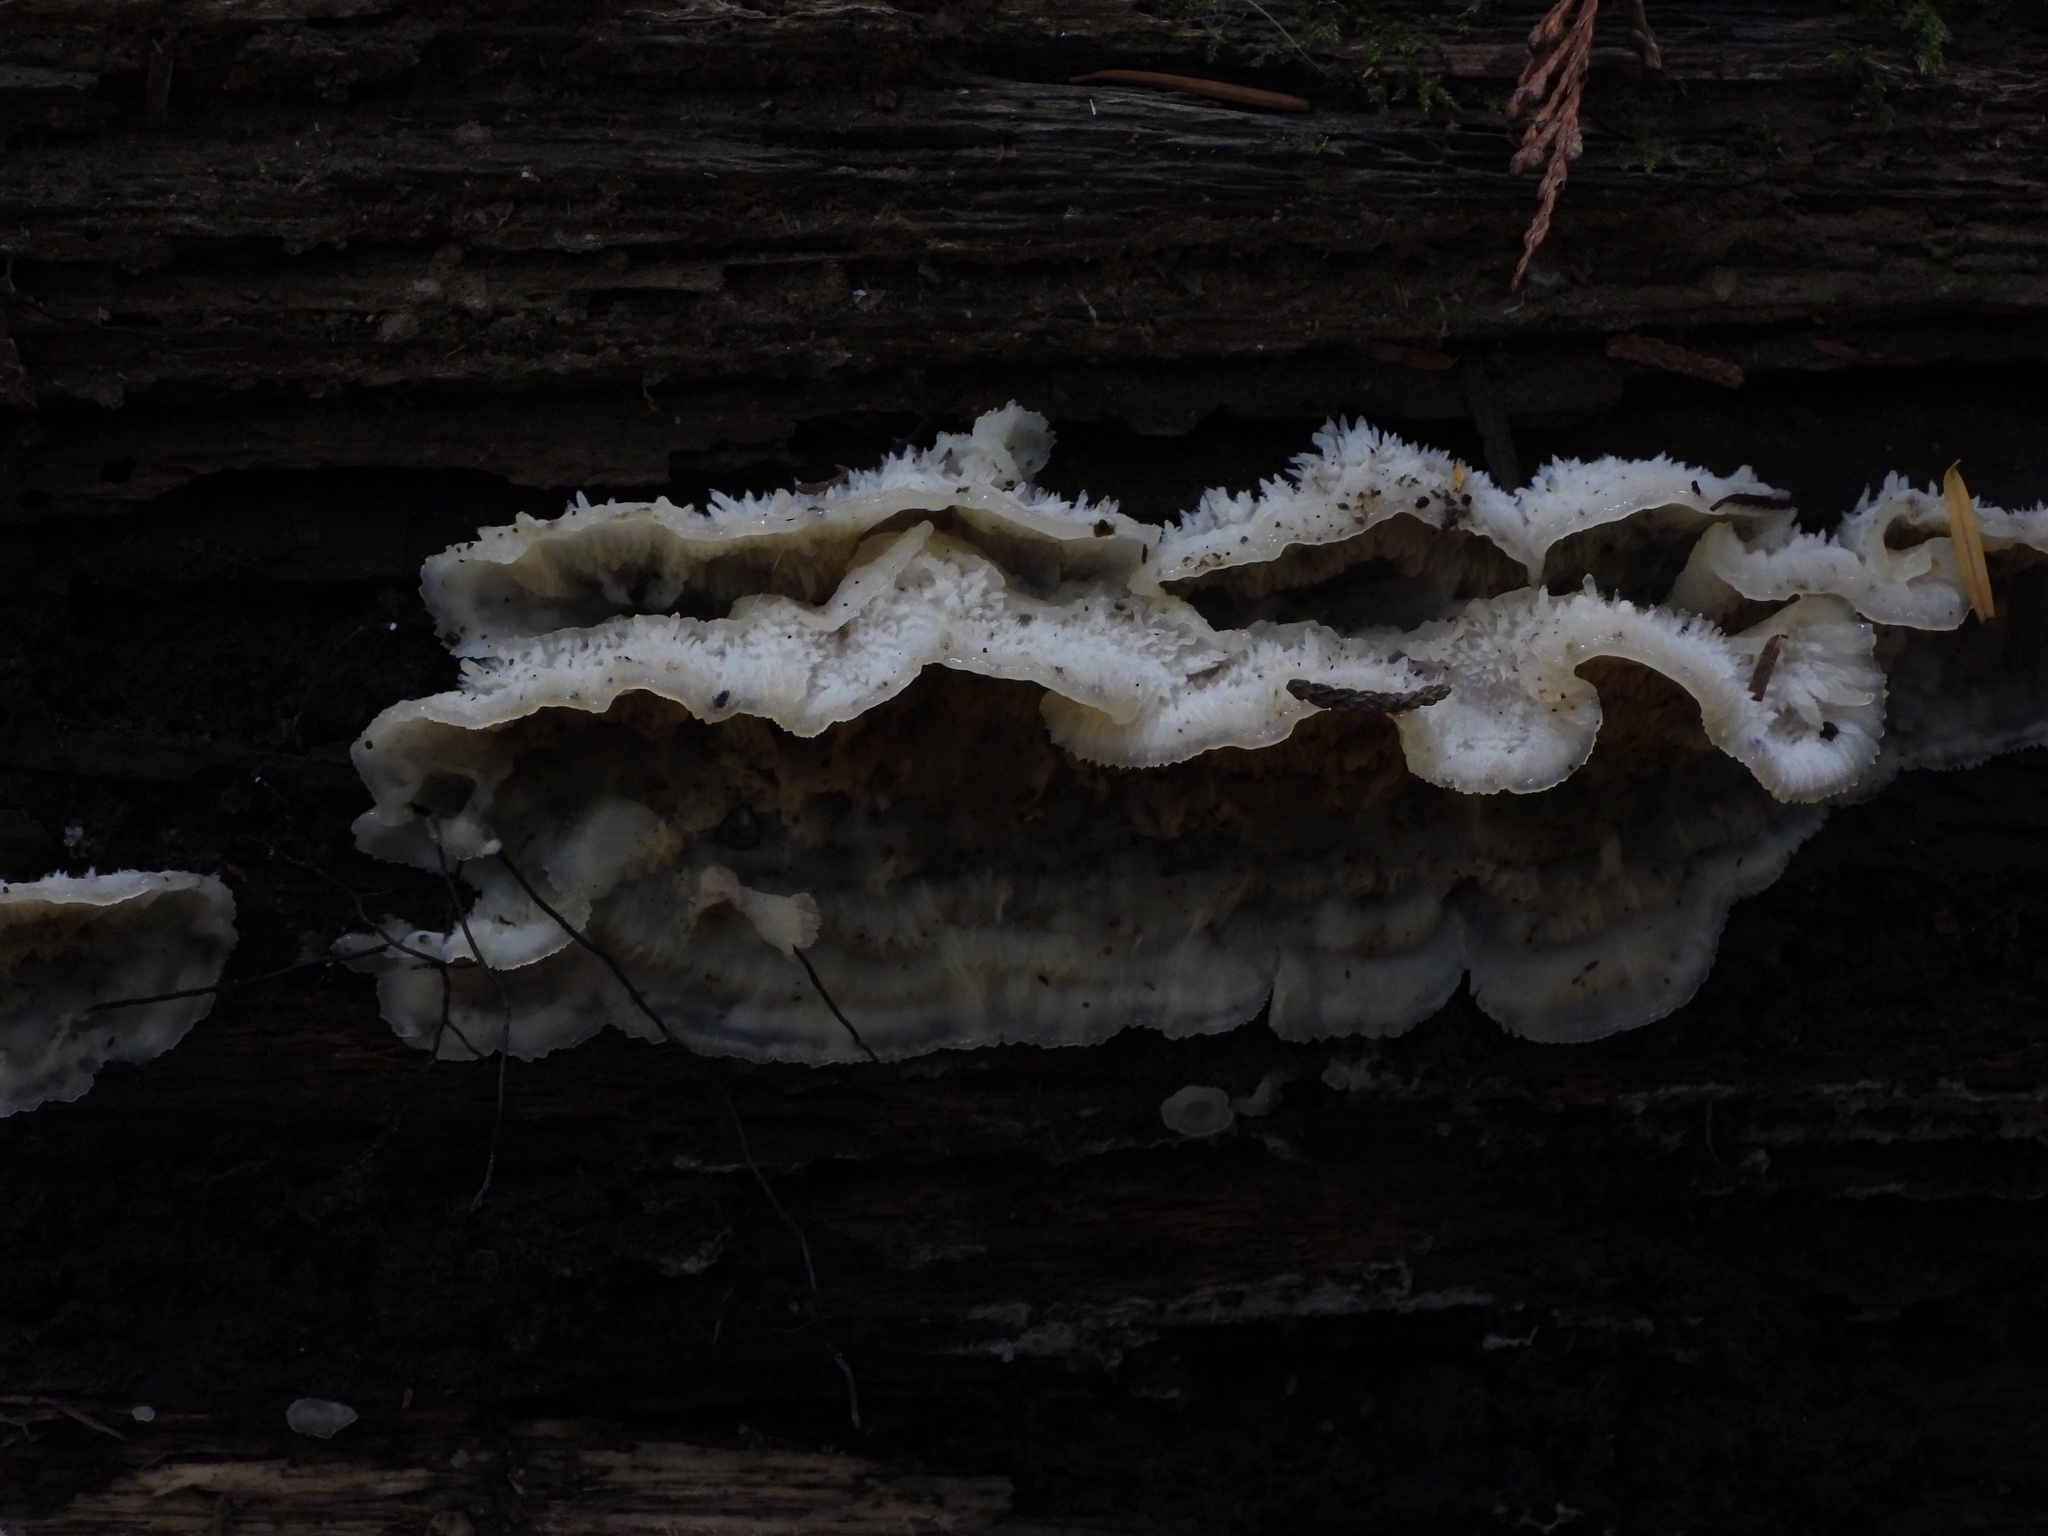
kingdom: Fungi
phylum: Basidiomycota
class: Agaricomycetes
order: Polyporales
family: Meruliaceae
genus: Phlebia
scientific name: Phlebia tremellosa
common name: Jelly rot
